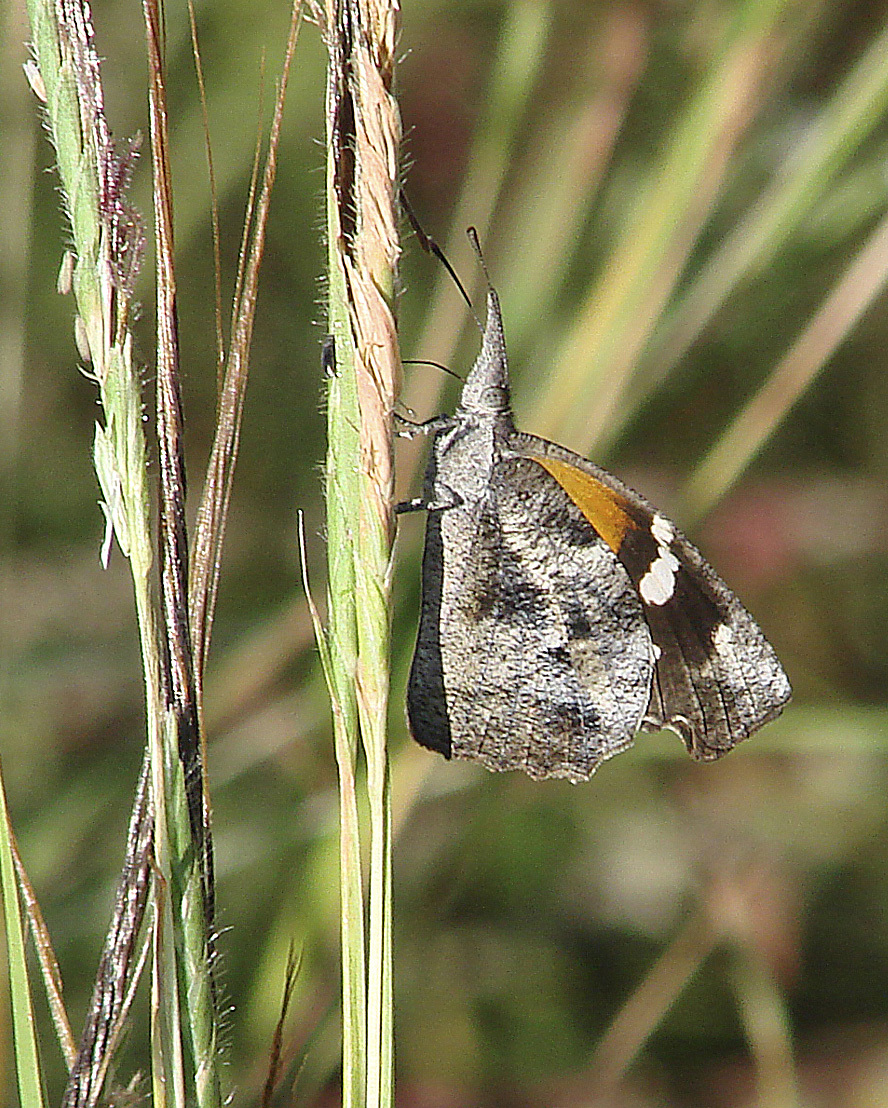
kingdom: Animalia
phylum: Arthropoda
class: Insecta
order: Lepidoptera
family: Nymphalidae
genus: Libytheana
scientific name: Libytheana carinenta
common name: American snout
